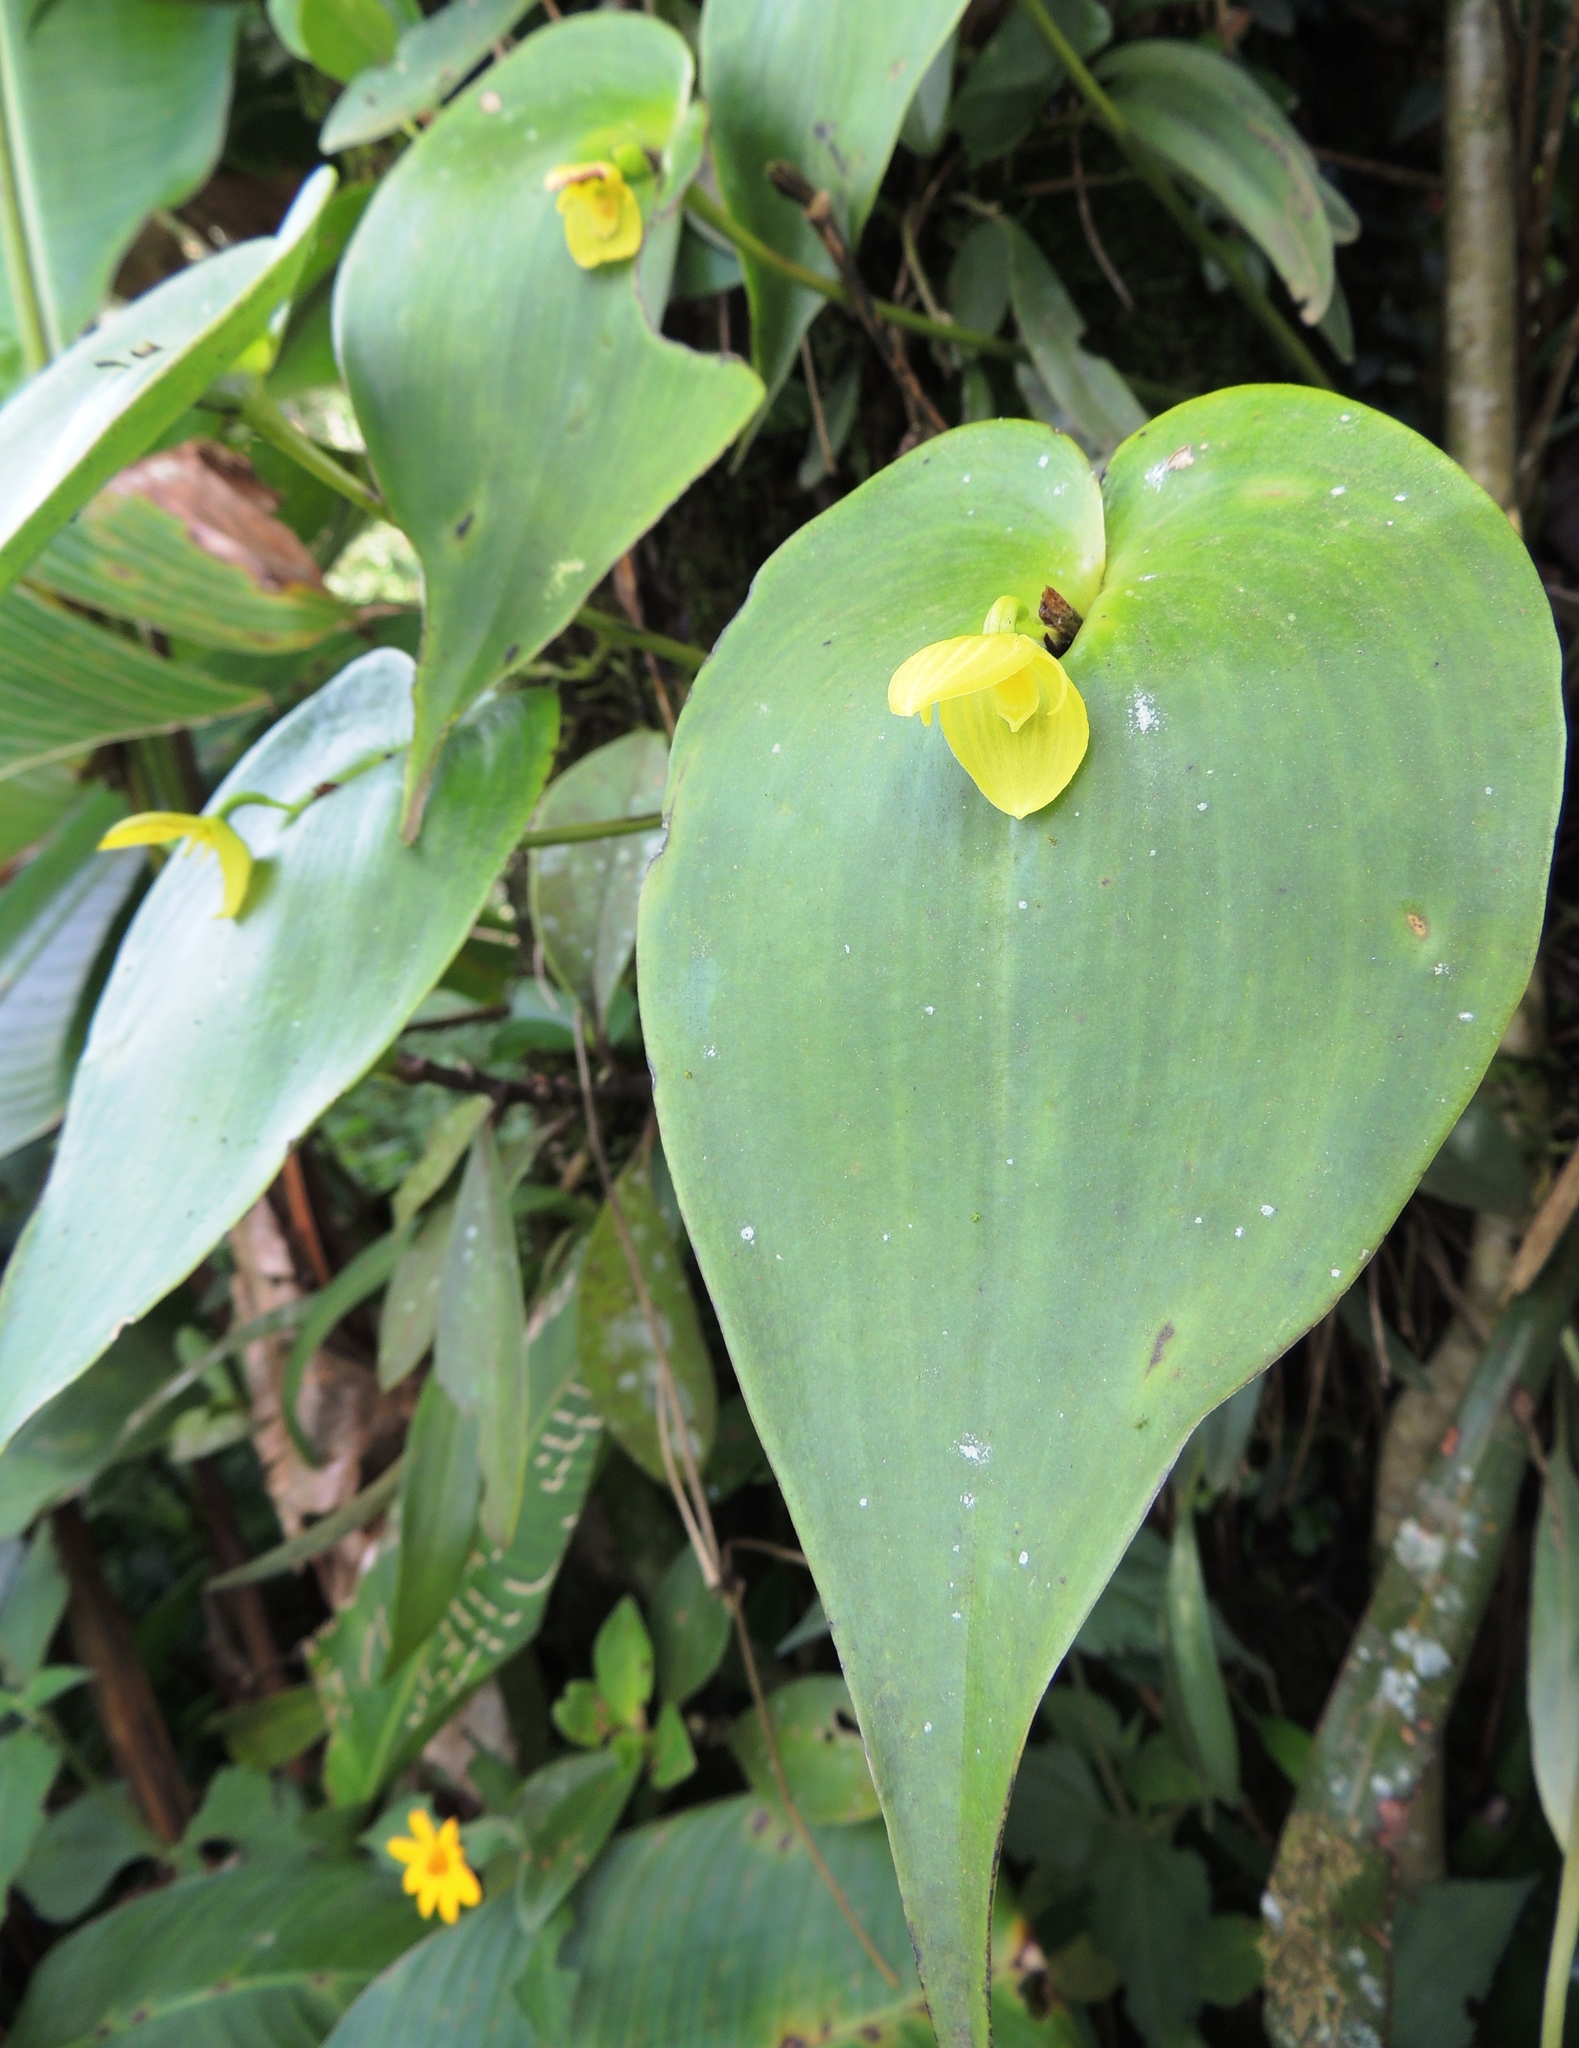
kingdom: Plantae
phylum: Tracheophyta
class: Liliopsida
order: Asparagales
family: Orchidaceae
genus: Pleurothallis
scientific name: Pleurothallis titan
